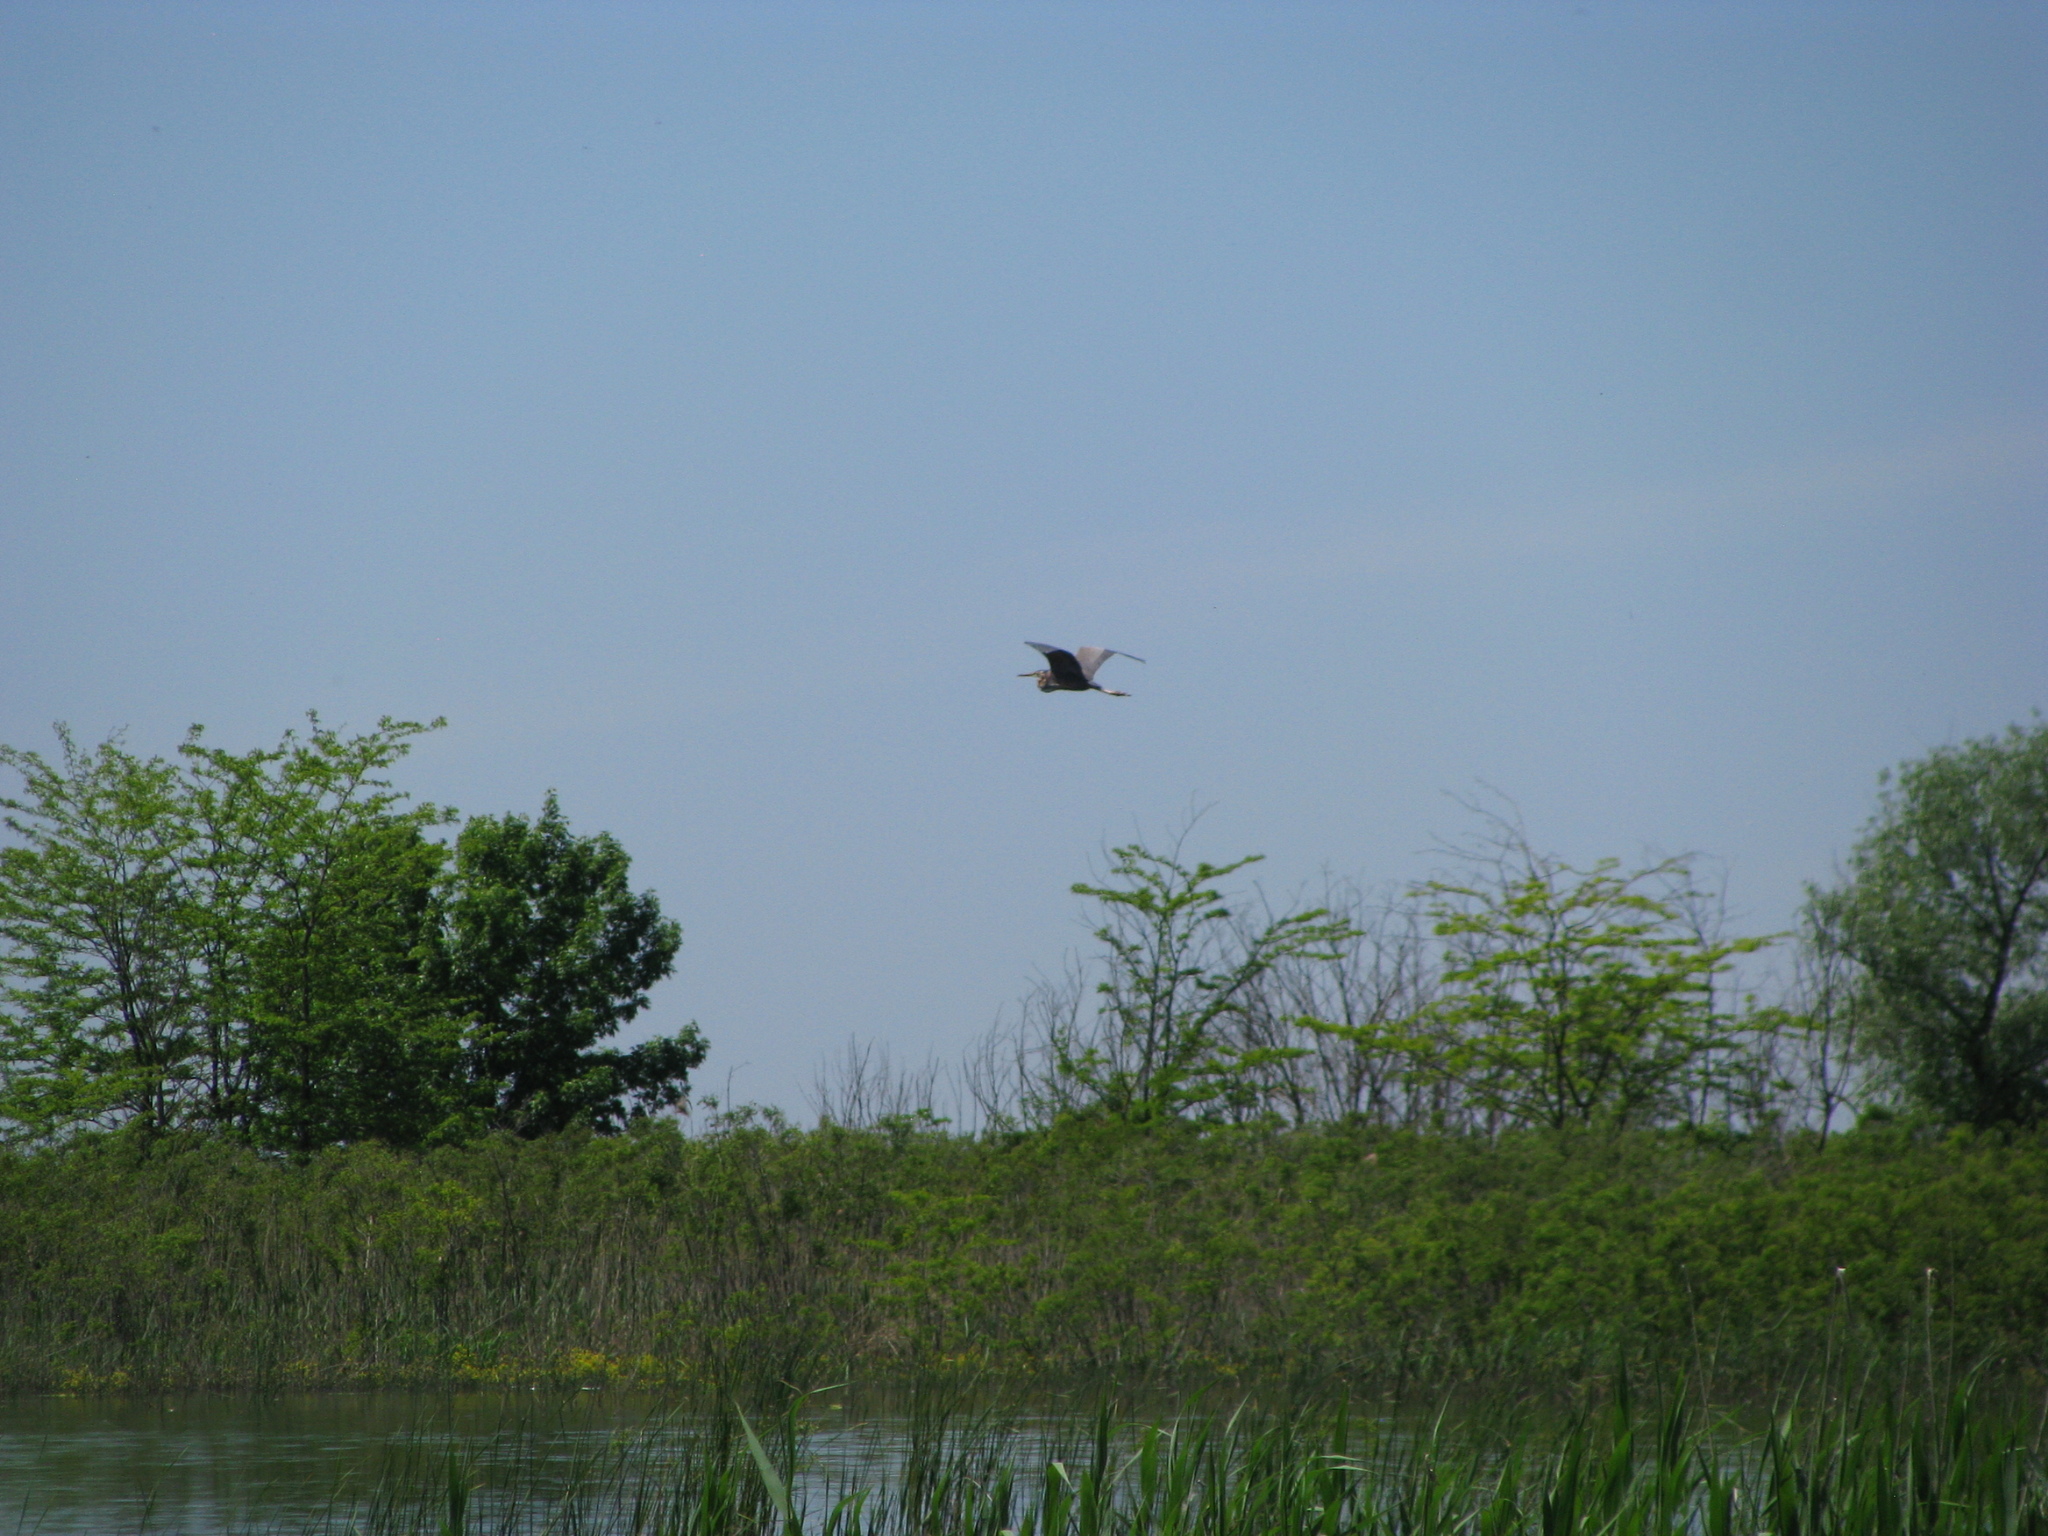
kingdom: Animalia
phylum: Chordata
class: Aves
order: Pelecaniformes
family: Ardeidae
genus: Ardea
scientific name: Ardea purpurea
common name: Purple heron
